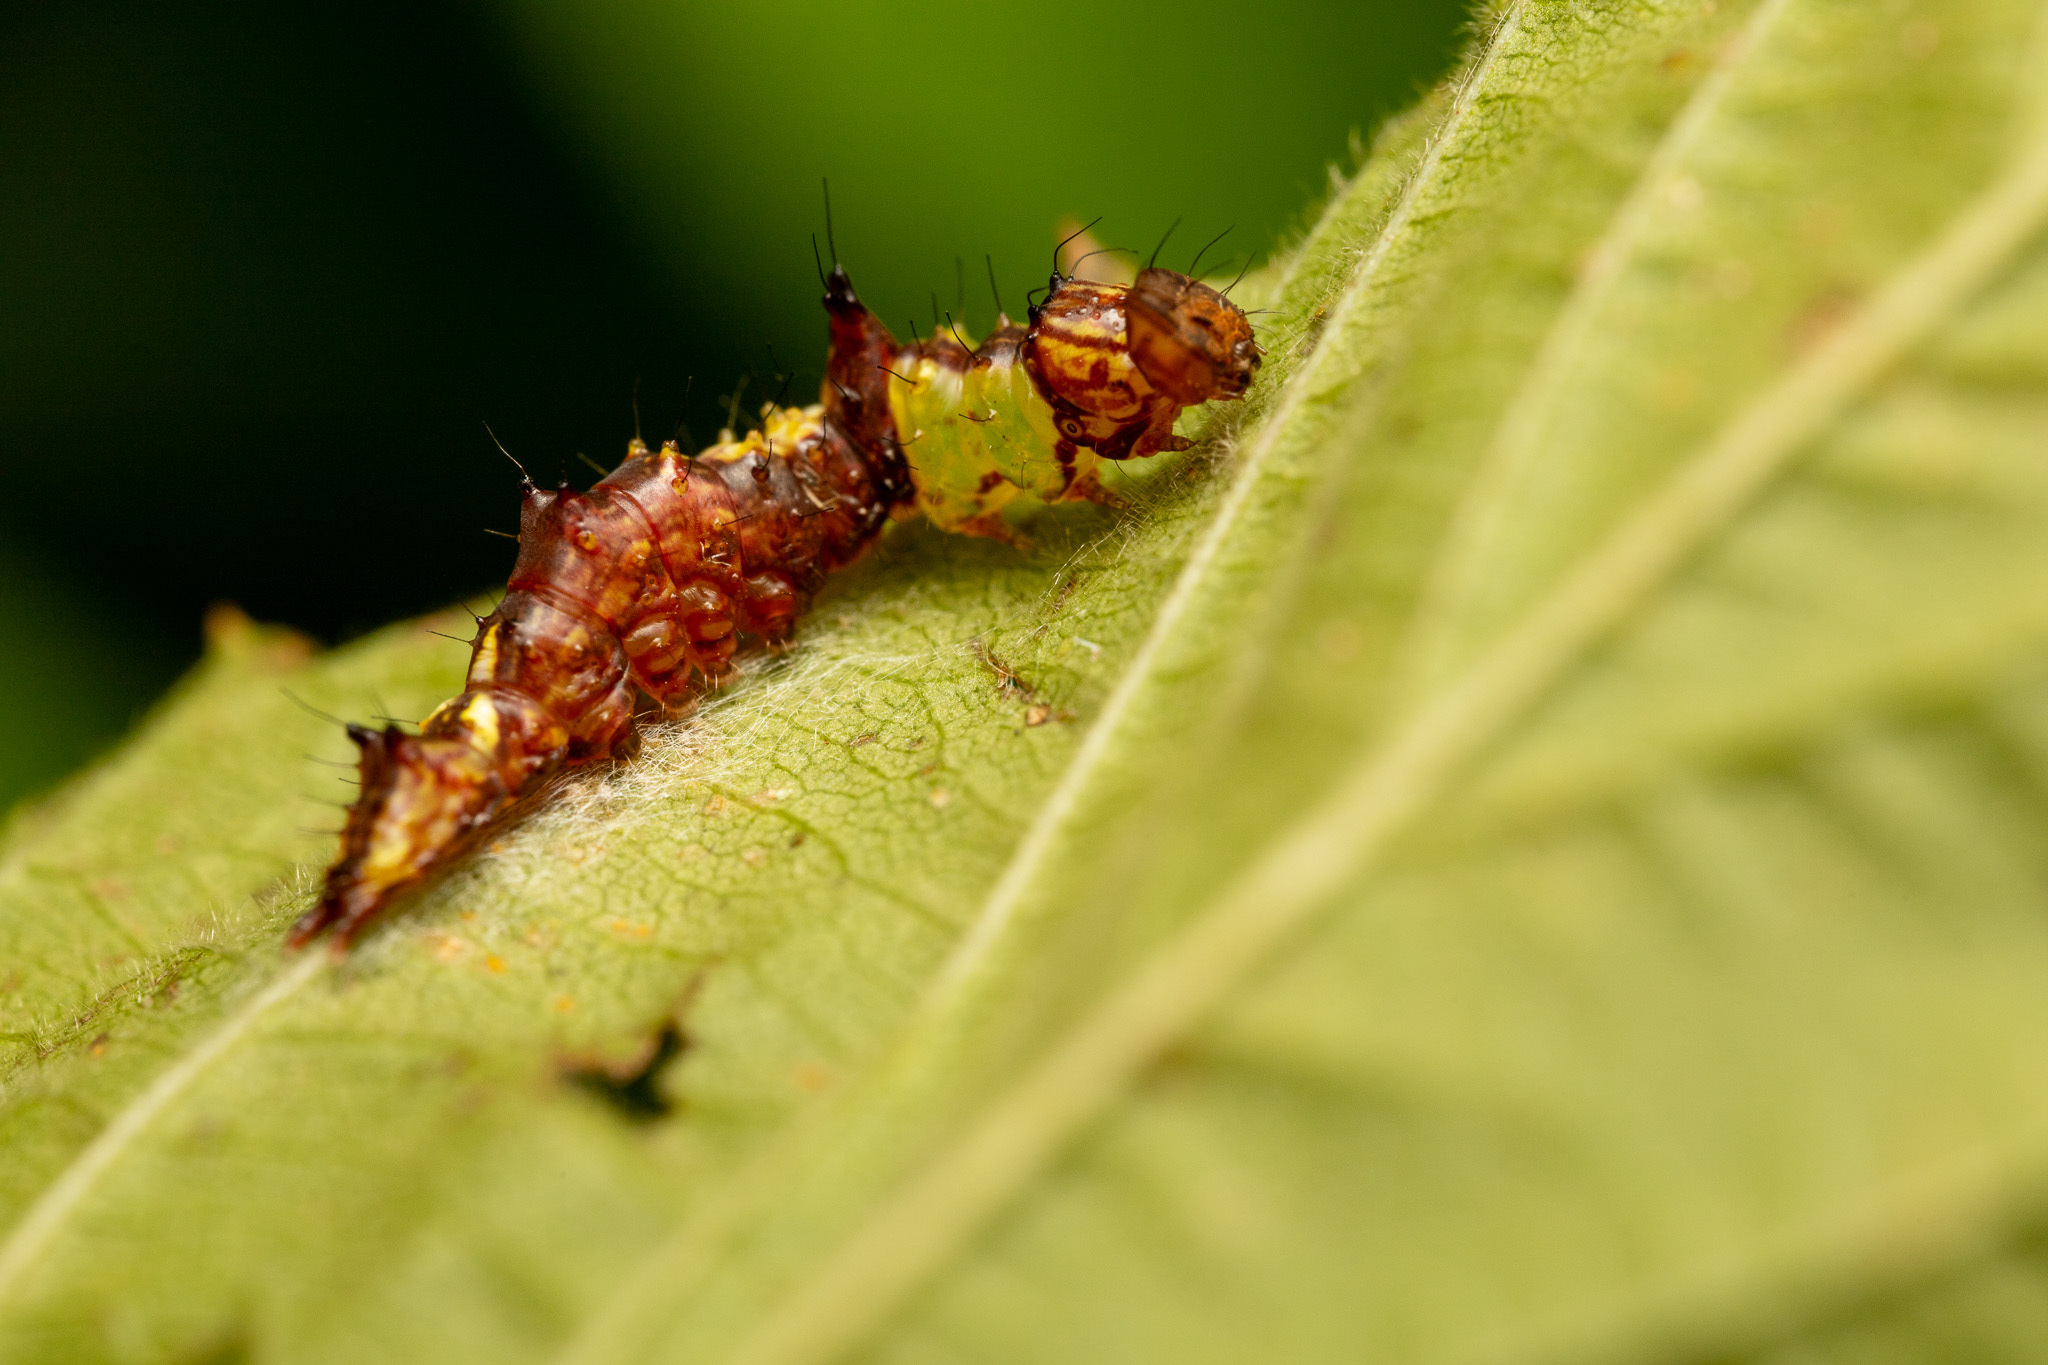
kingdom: Animalia
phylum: Arthropoda
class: Insecta
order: Lepidoptera
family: Notodontidae
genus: Schizura
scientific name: Schizura ipomaeae
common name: Morning-glory prominent
